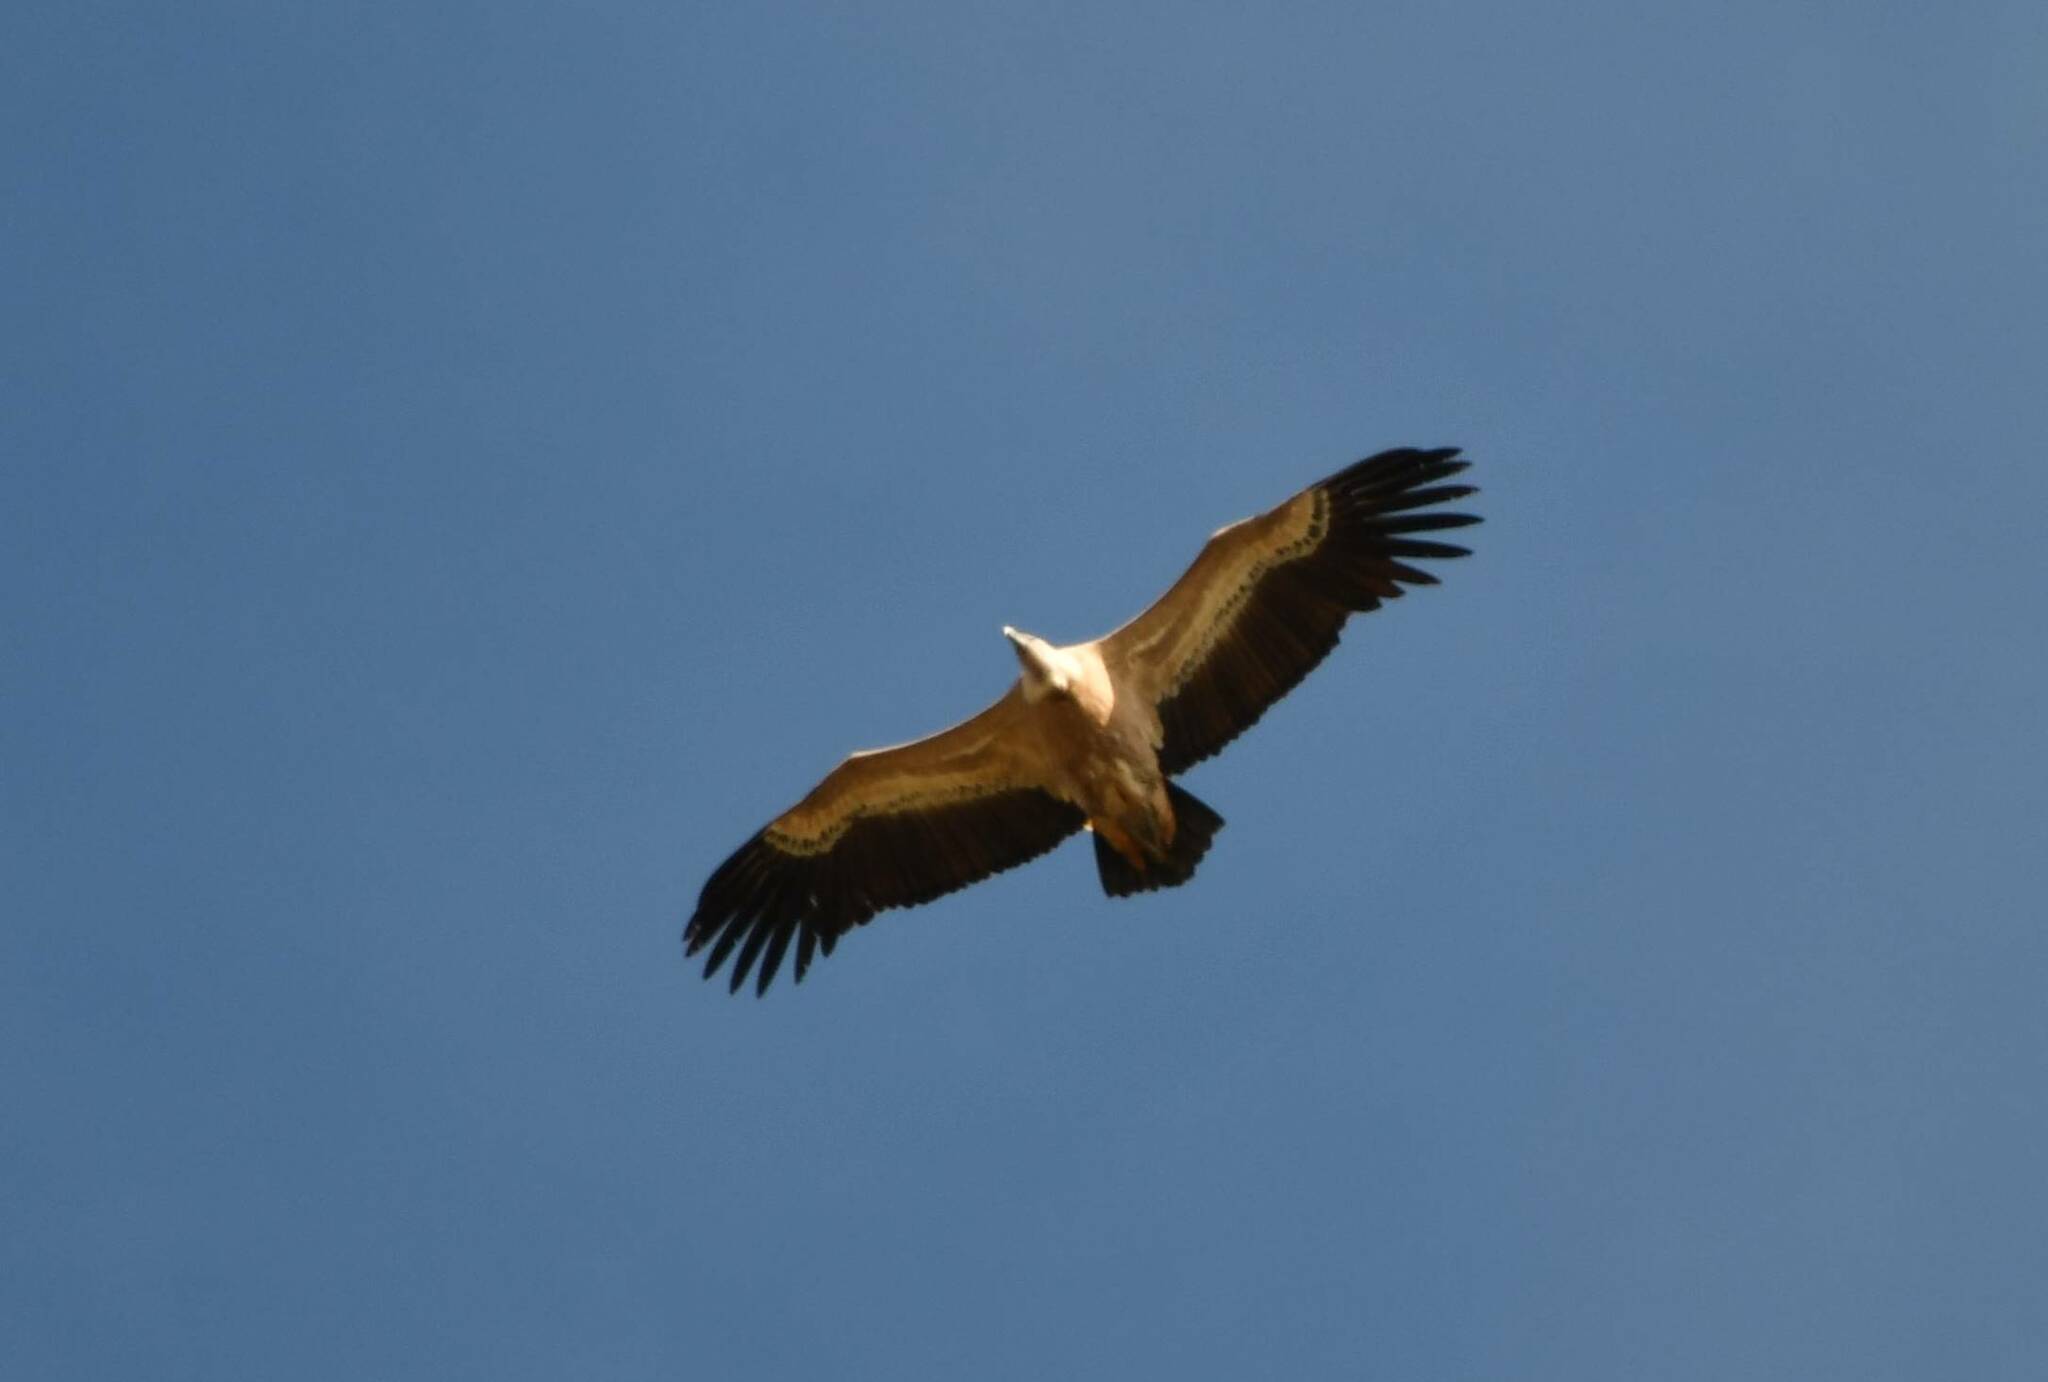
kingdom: Animalia
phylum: Chordata
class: Aves
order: Accipitriformes
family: Accipitridae
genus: Gyps
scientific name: Gyps fulvus
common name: Griffon vulture
